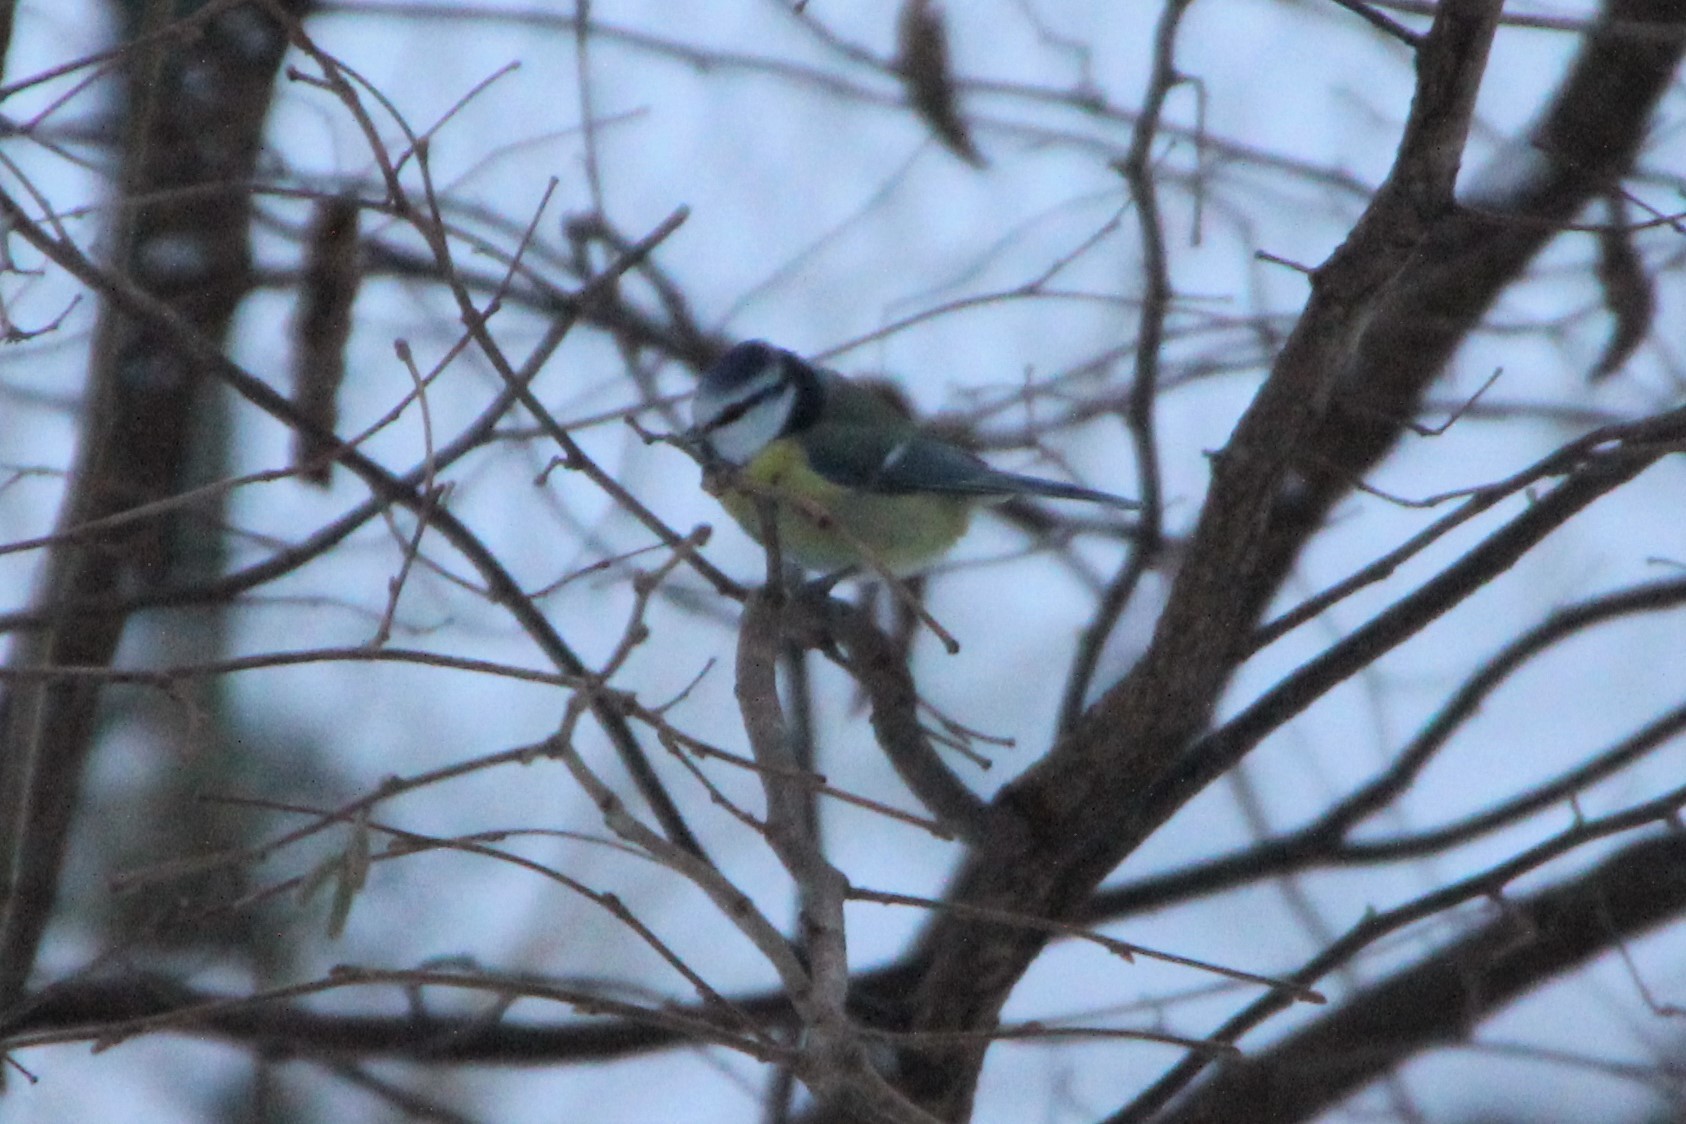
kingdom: Animalia
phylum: Chordata
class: Aves
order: Passeriformes
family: Paridae
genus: Cyanistes
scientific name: Cyanistes caeruleus
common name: Eurasian blue tit
